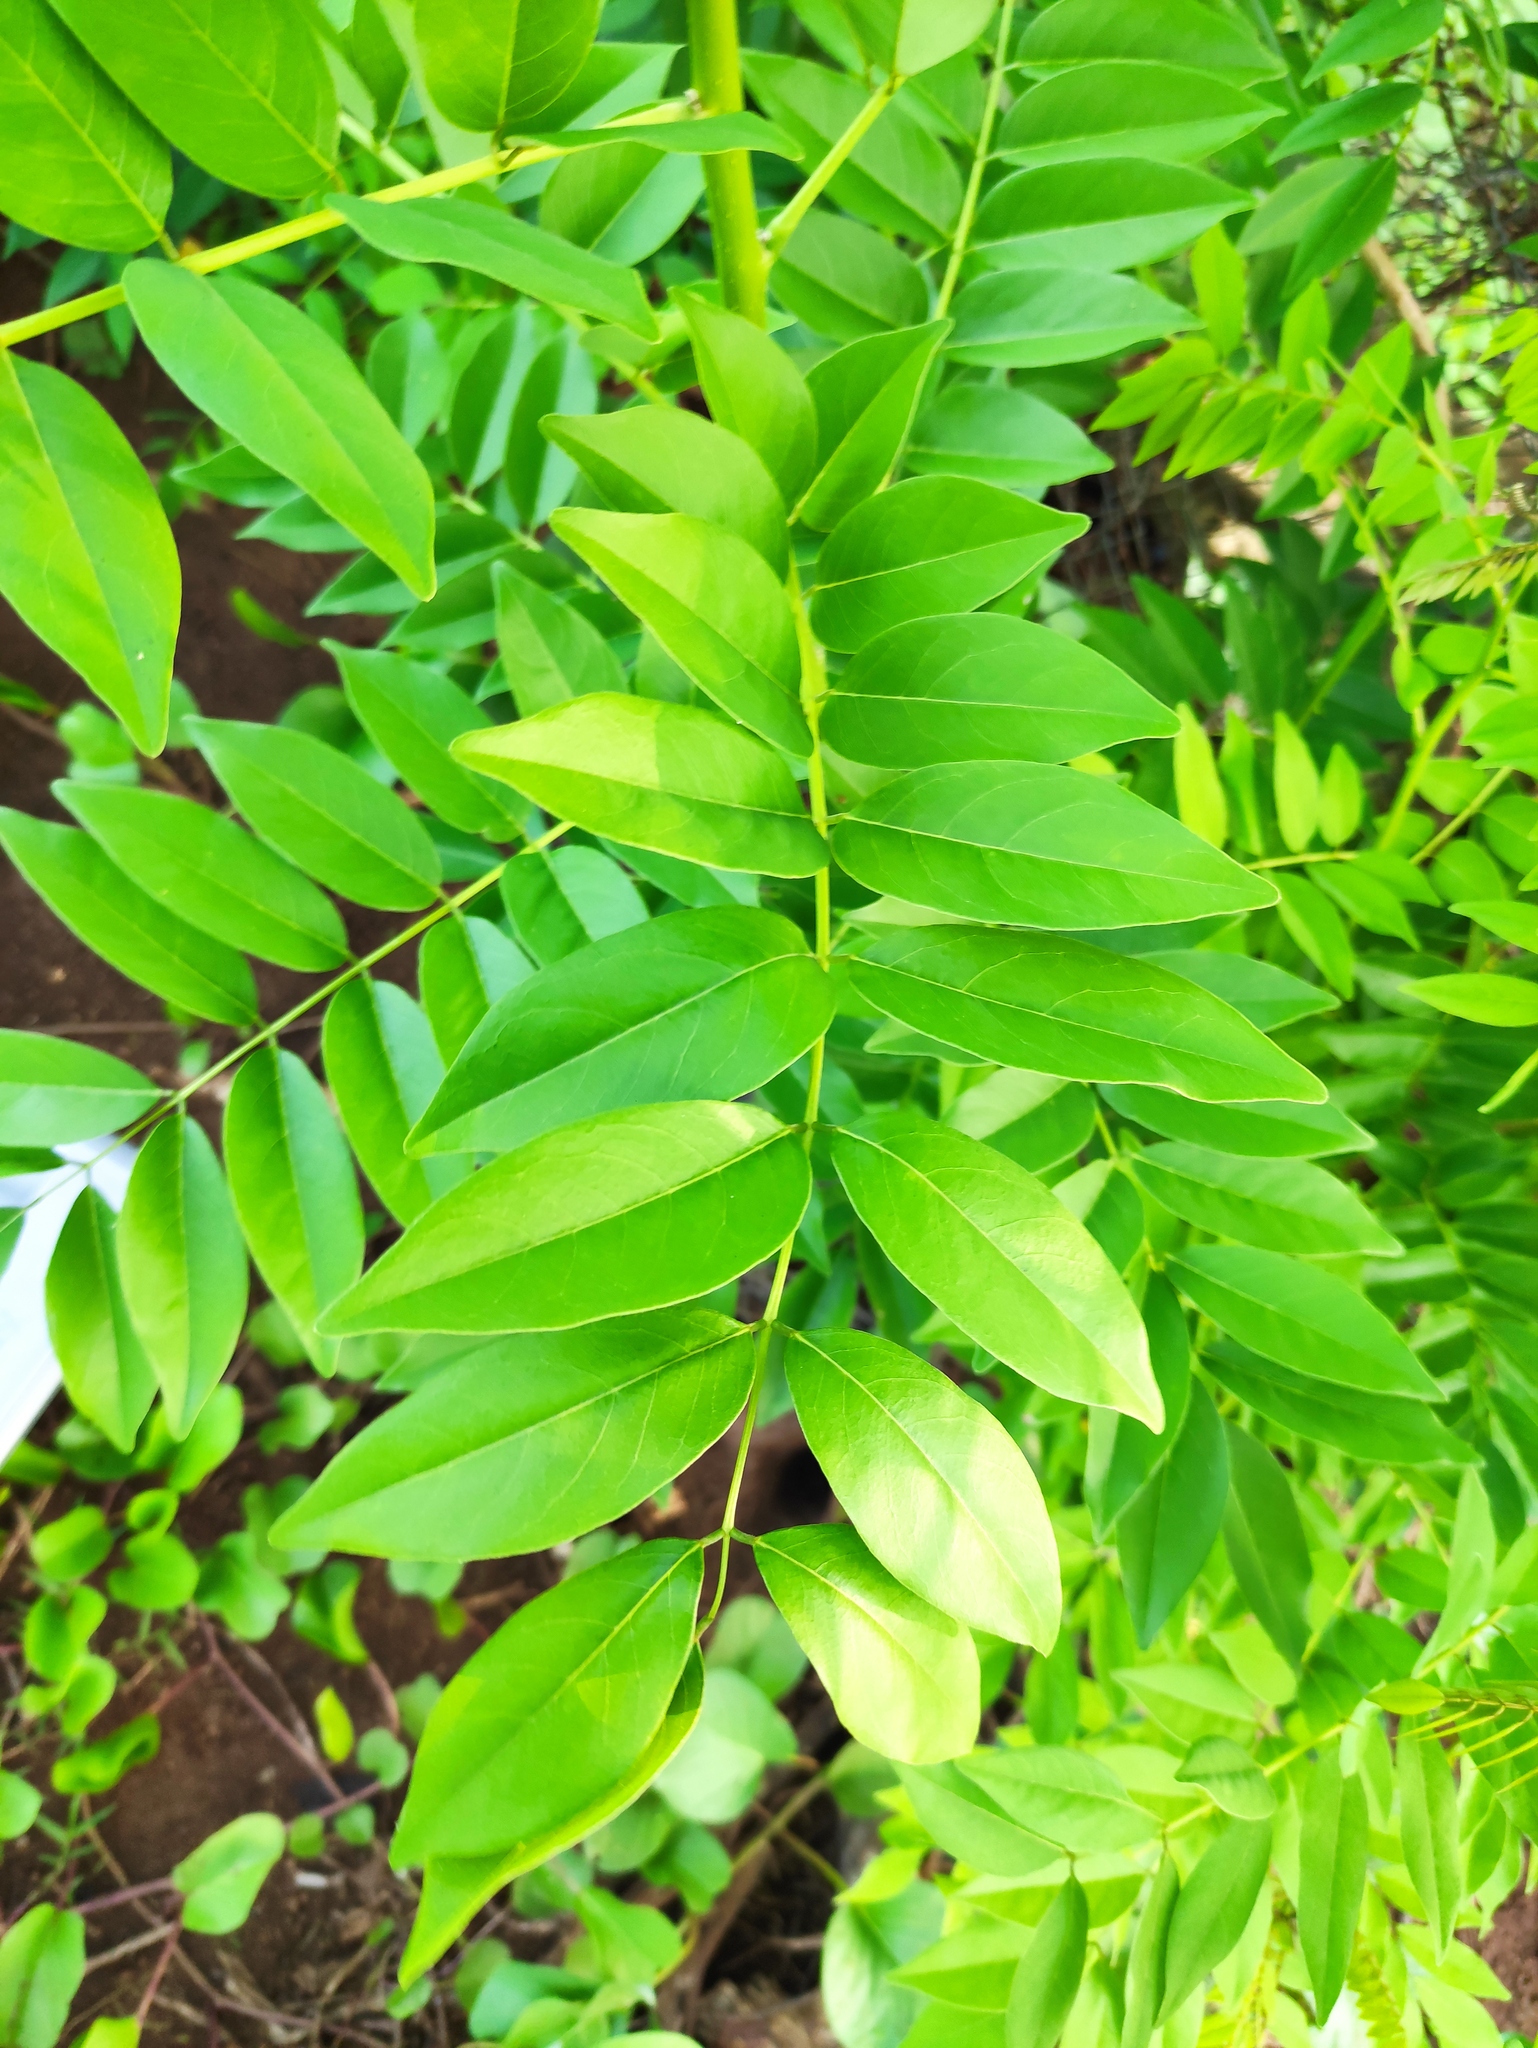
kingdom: Plantae
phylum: Tracheophyta
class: Magnoliopsida
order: Fabales
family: Fabaceae
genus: Gliricidia
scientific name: Gliricidia sepium
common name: Quickstick
